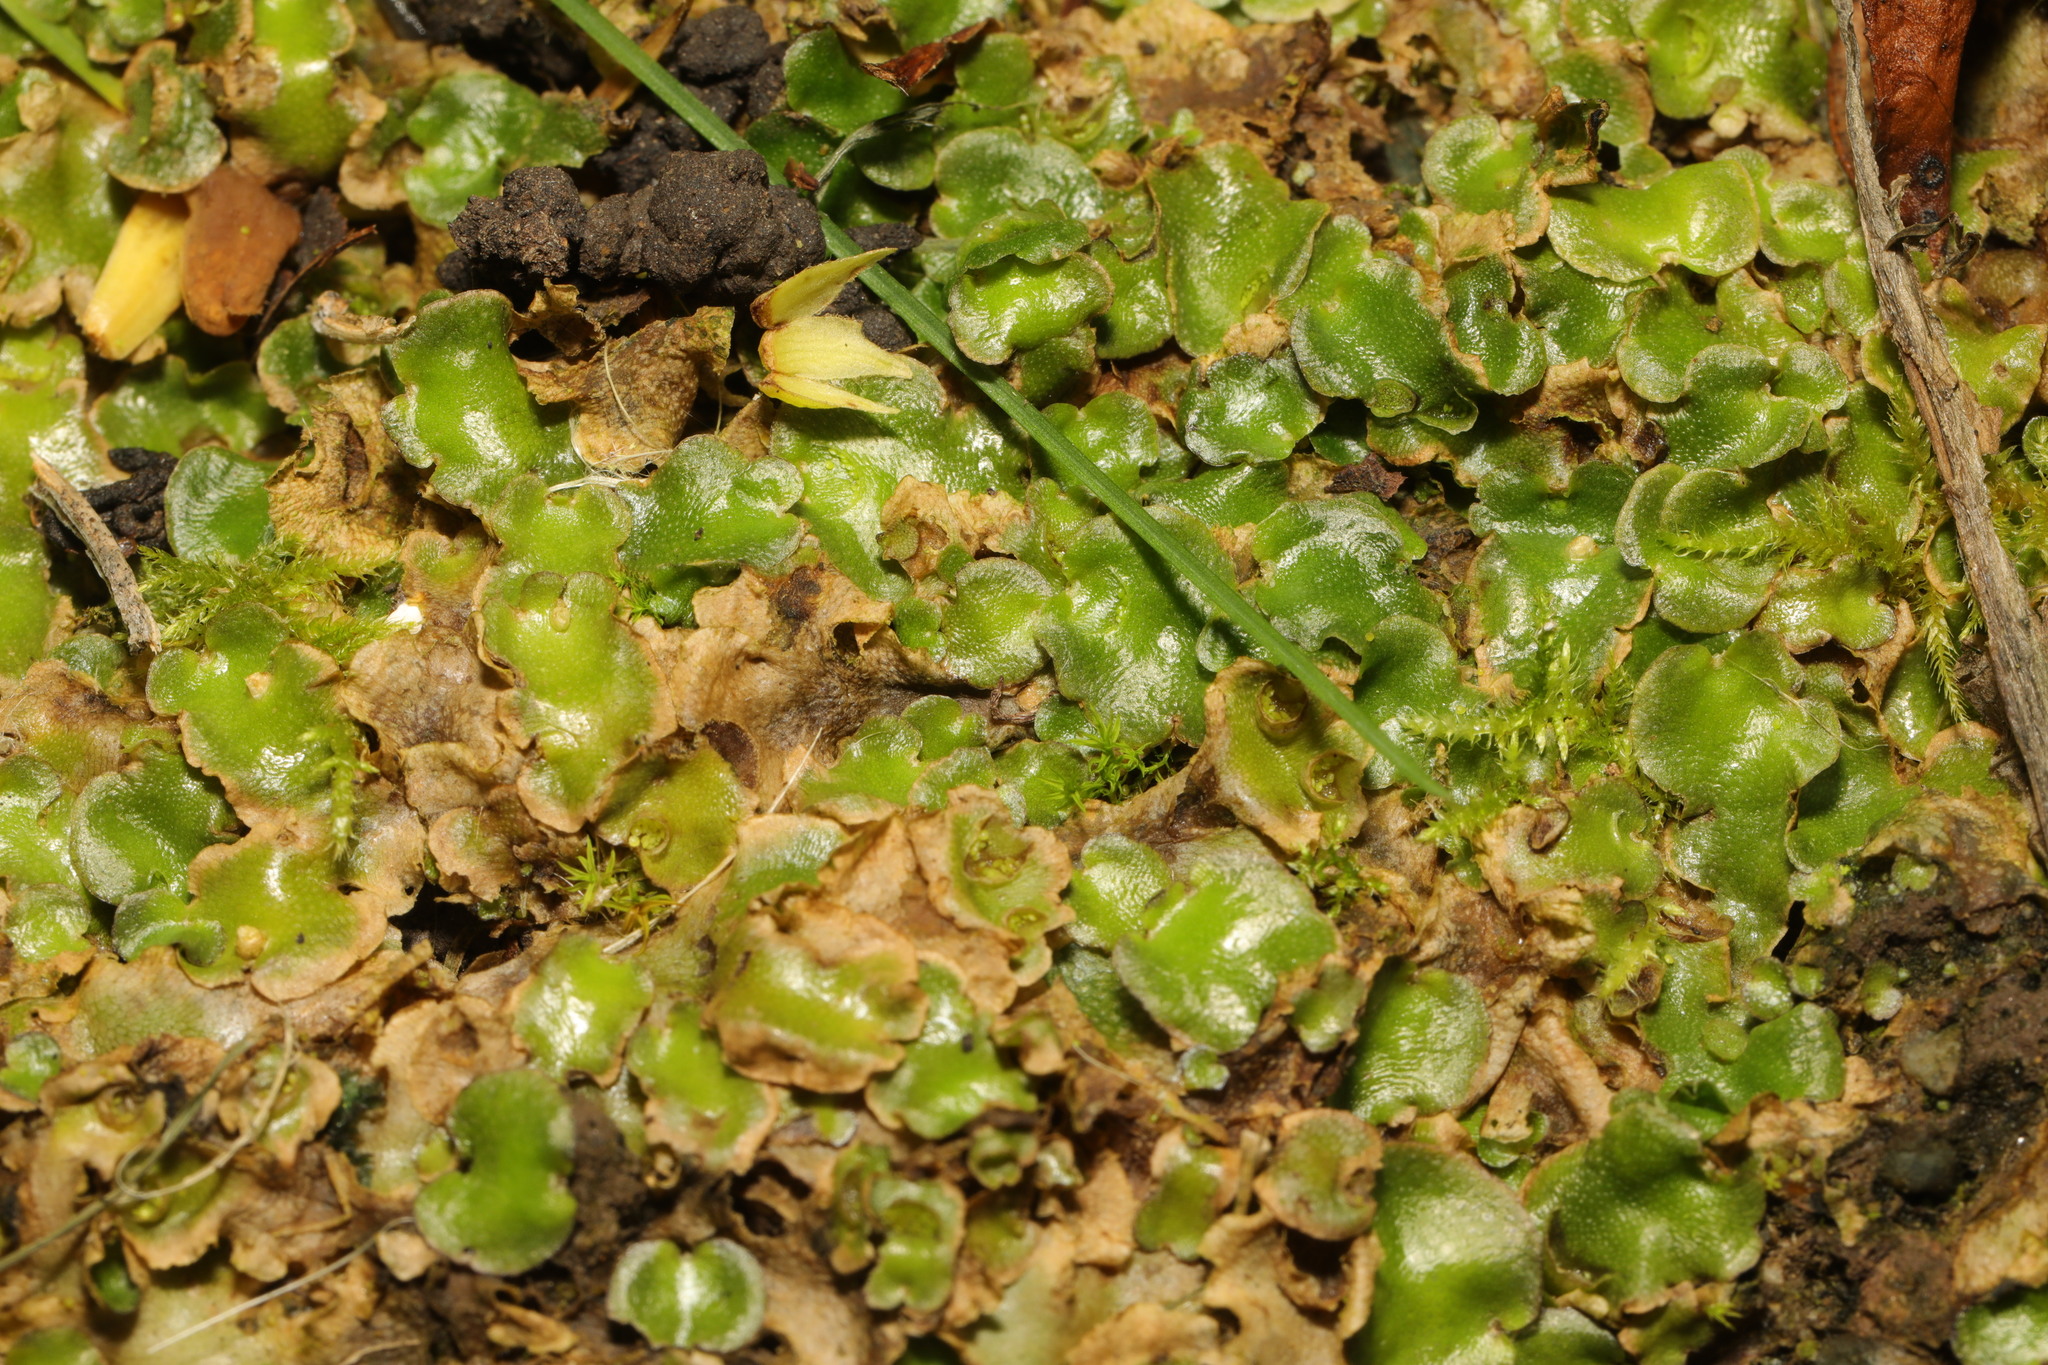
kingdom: Plantae
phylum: Marchantiophyta
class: Marchantiopsida
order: Lunulariales
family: Lunulariaceae
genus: Lunularia
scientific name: Lunularia cruciata
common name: Crescent-cup liverwort
